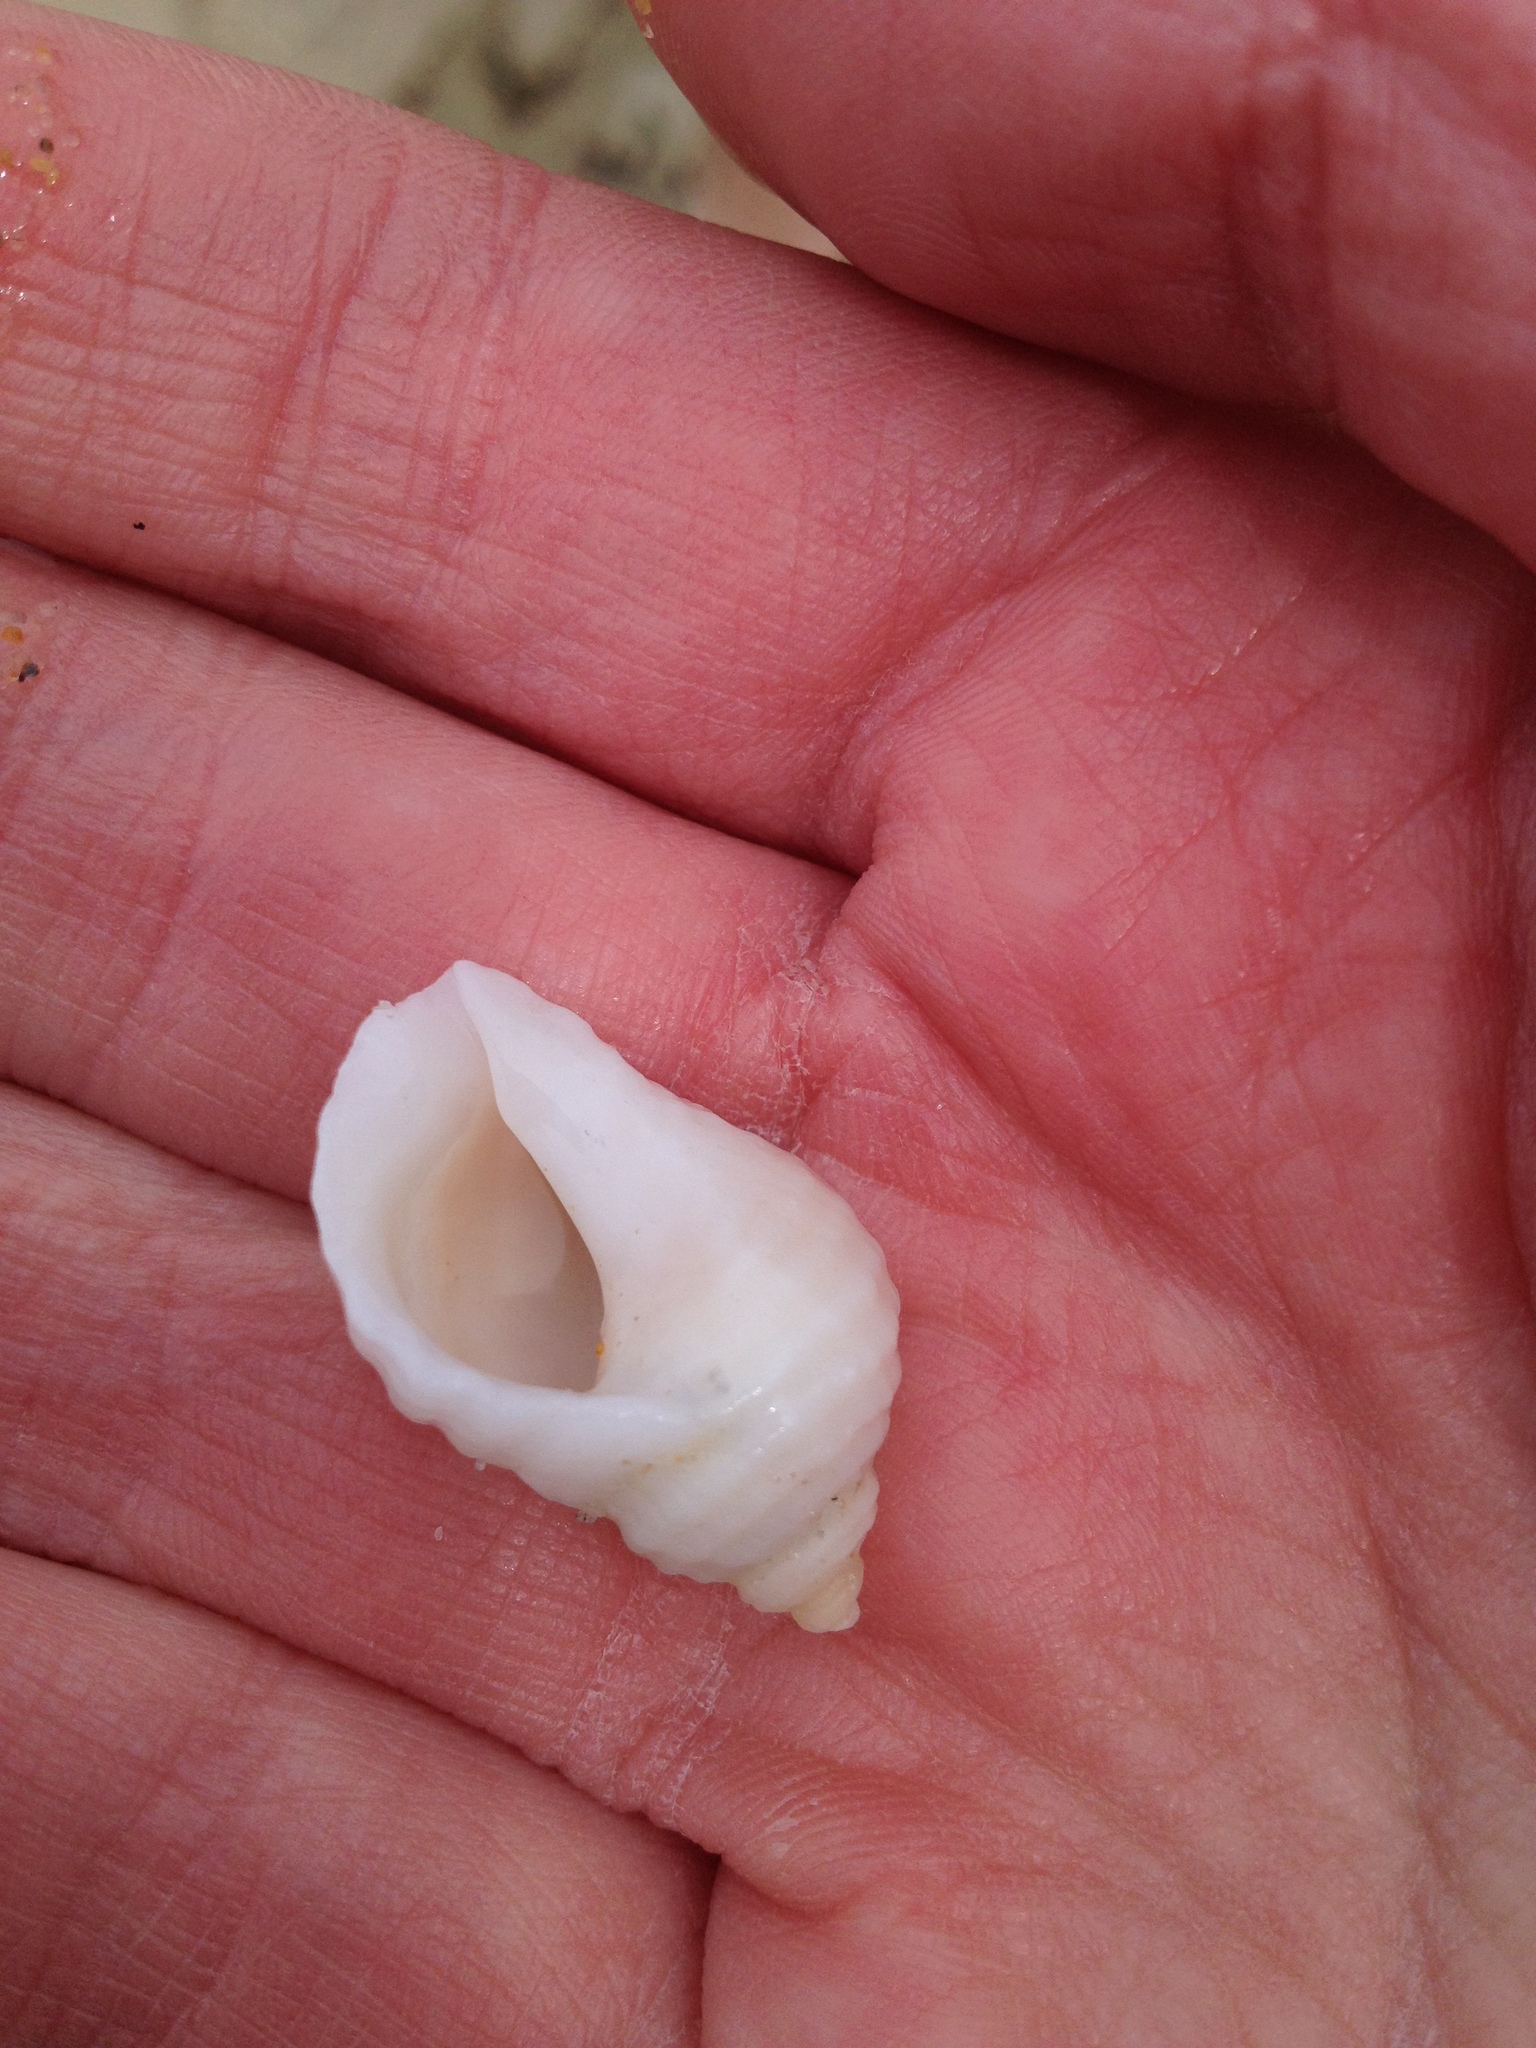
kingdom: Animalia
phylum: Mollusca
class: Gastropoda
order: Neogastropoda
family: Muricidae
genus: Nucella
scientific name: Nucella lapillus
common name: Dog whelk
